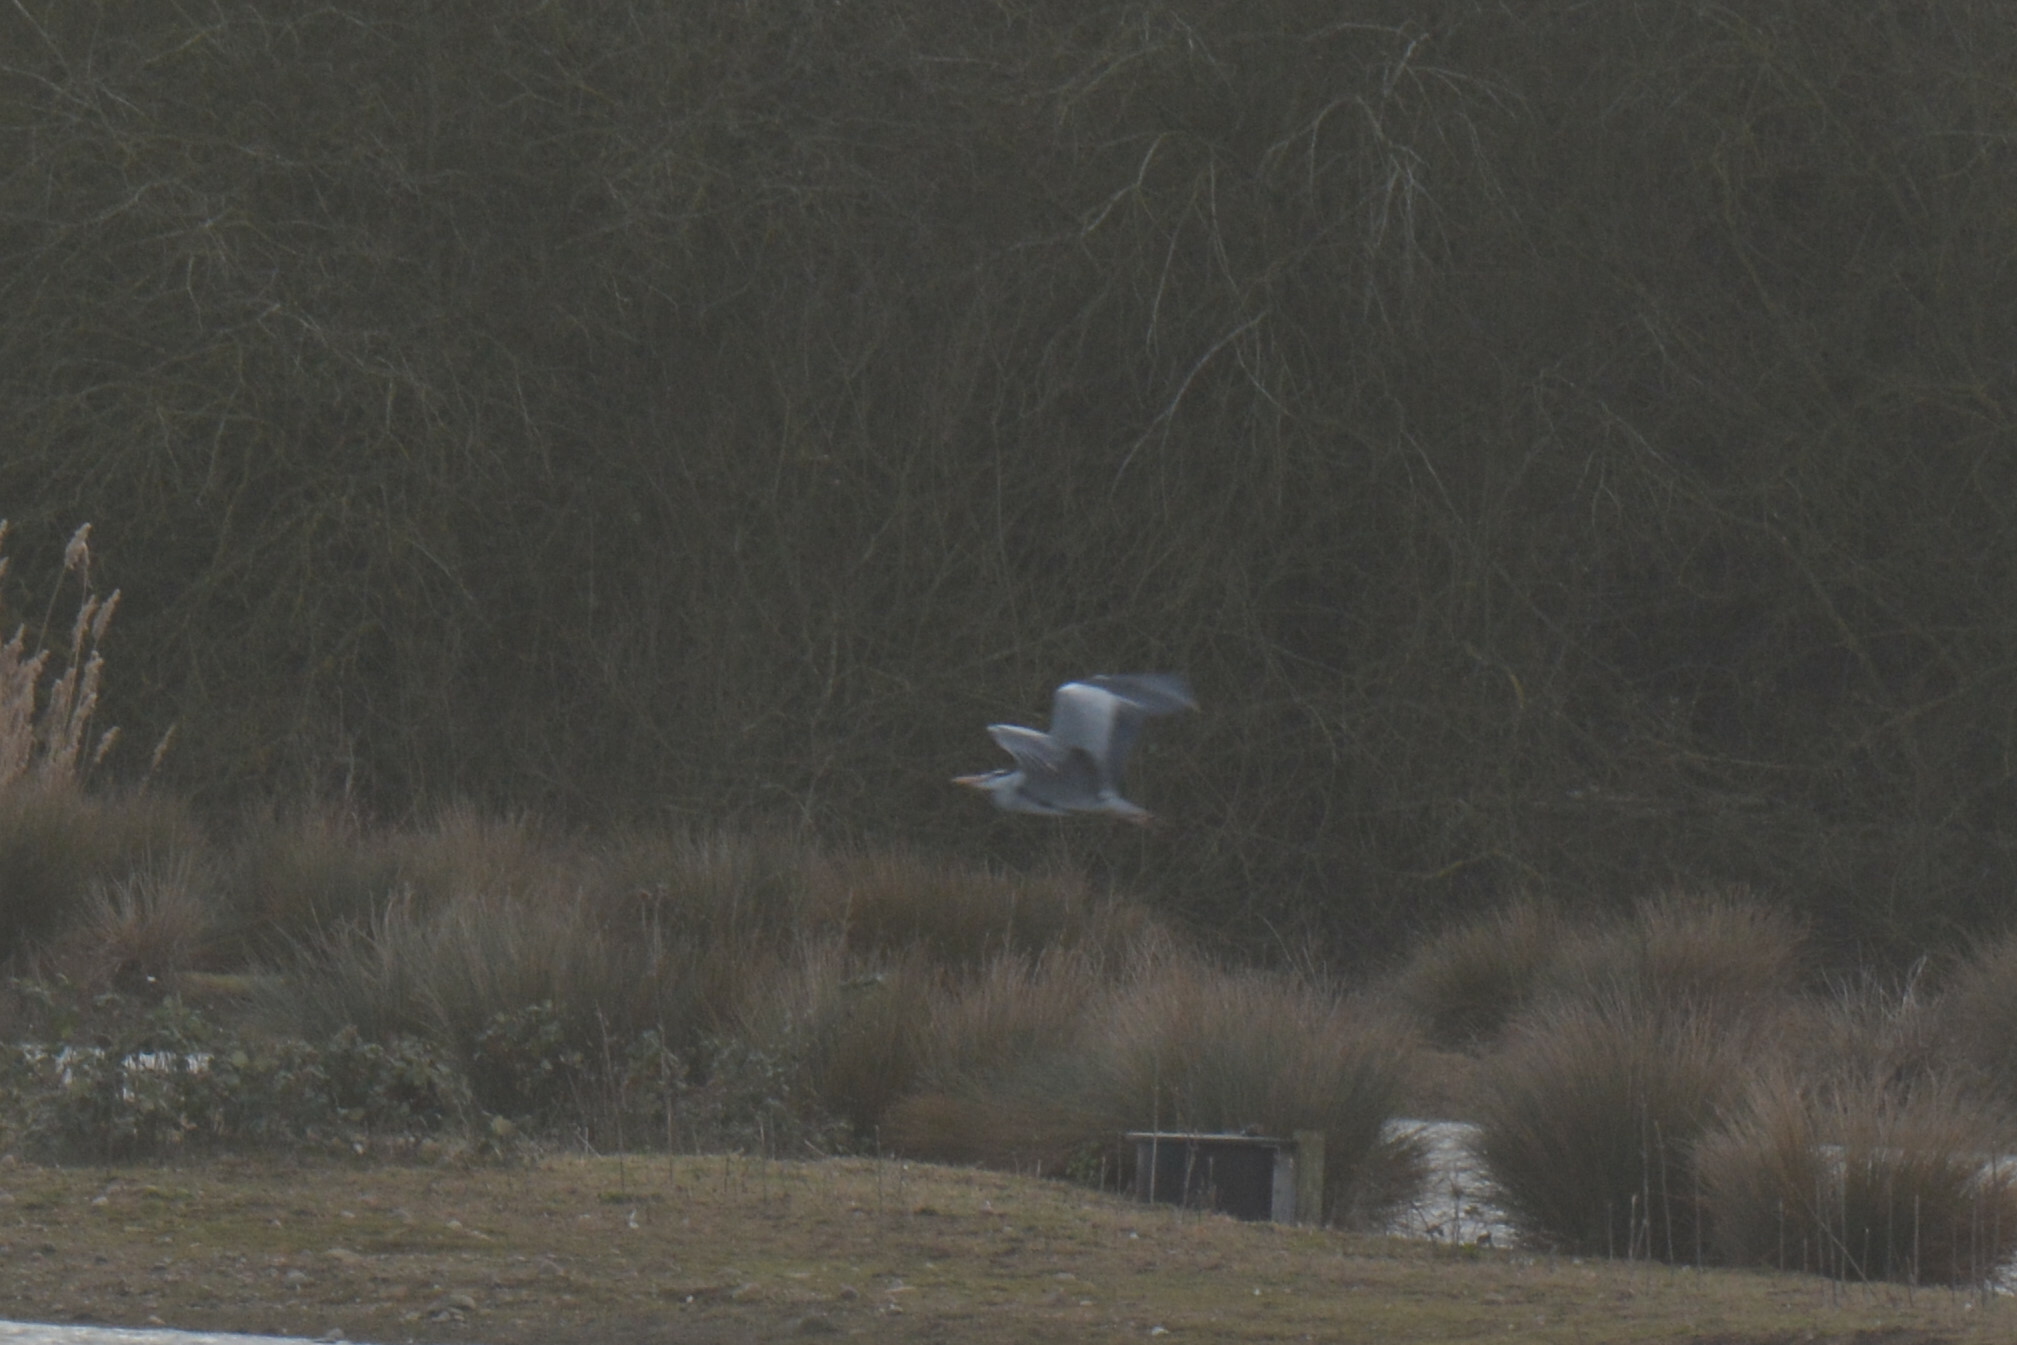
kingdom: Animalia
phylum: Chordata
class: Aves
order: Pelecaniformes
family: Ardeidae
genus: Ardea
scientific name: Ardea cinerea
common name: Grey heron
